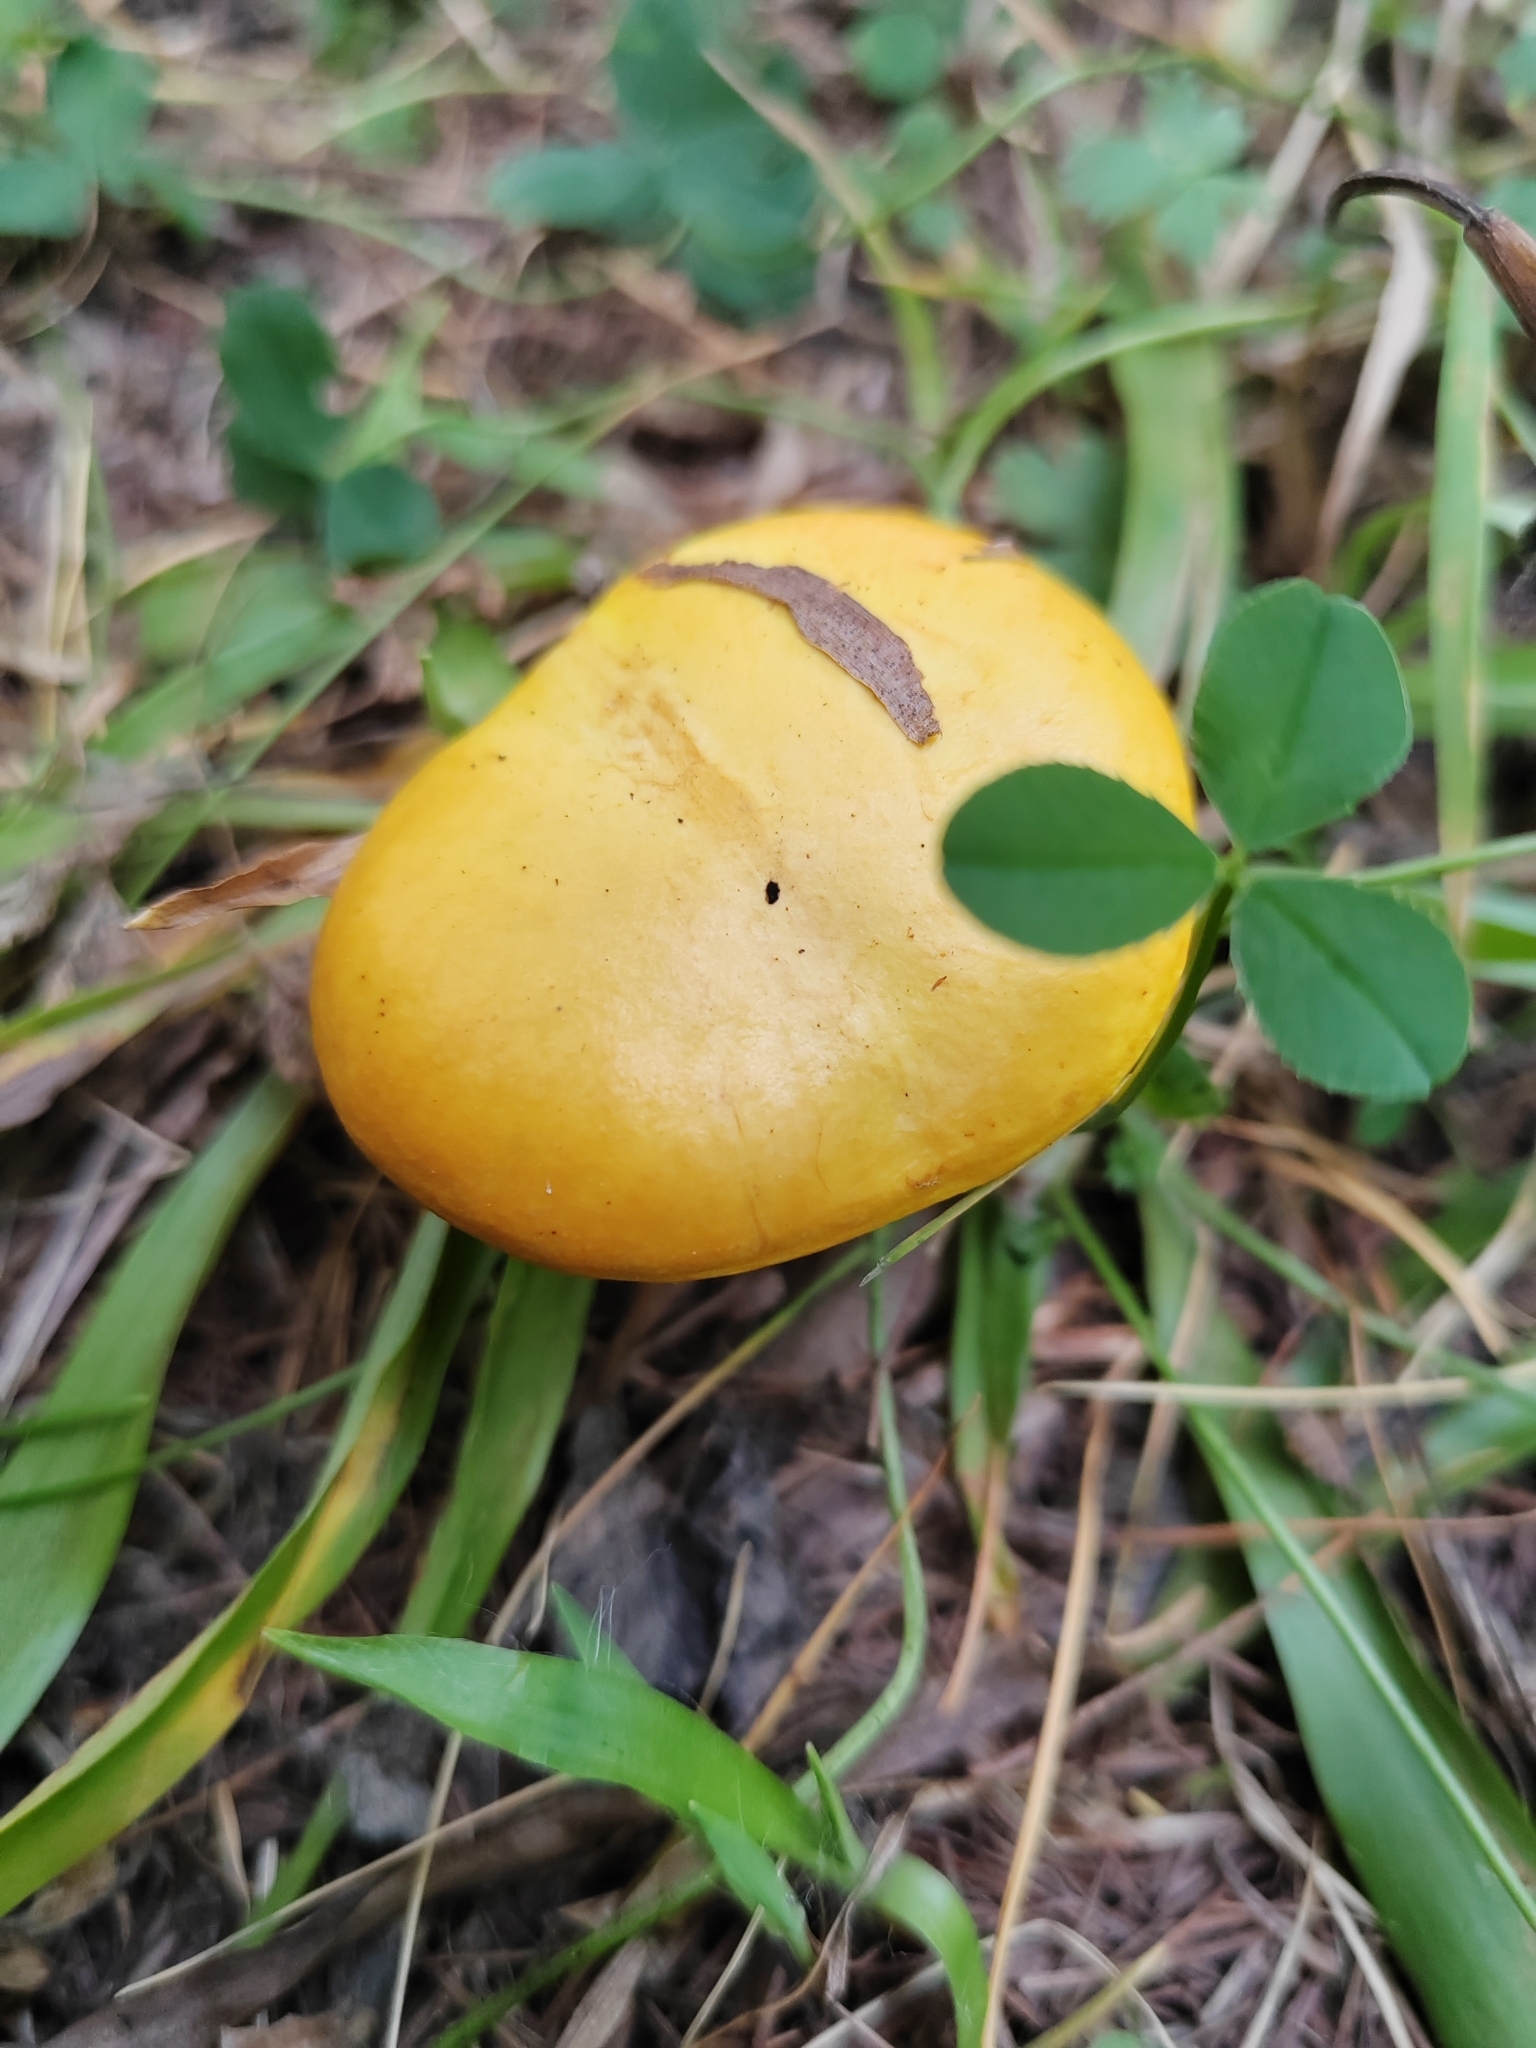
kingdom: Fungi
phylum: Basidiomycota
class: Agaricomycetes
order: Boletales
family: Suillaceae
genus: Suillus
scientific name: Suillus grevillei
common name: Larch bolete
